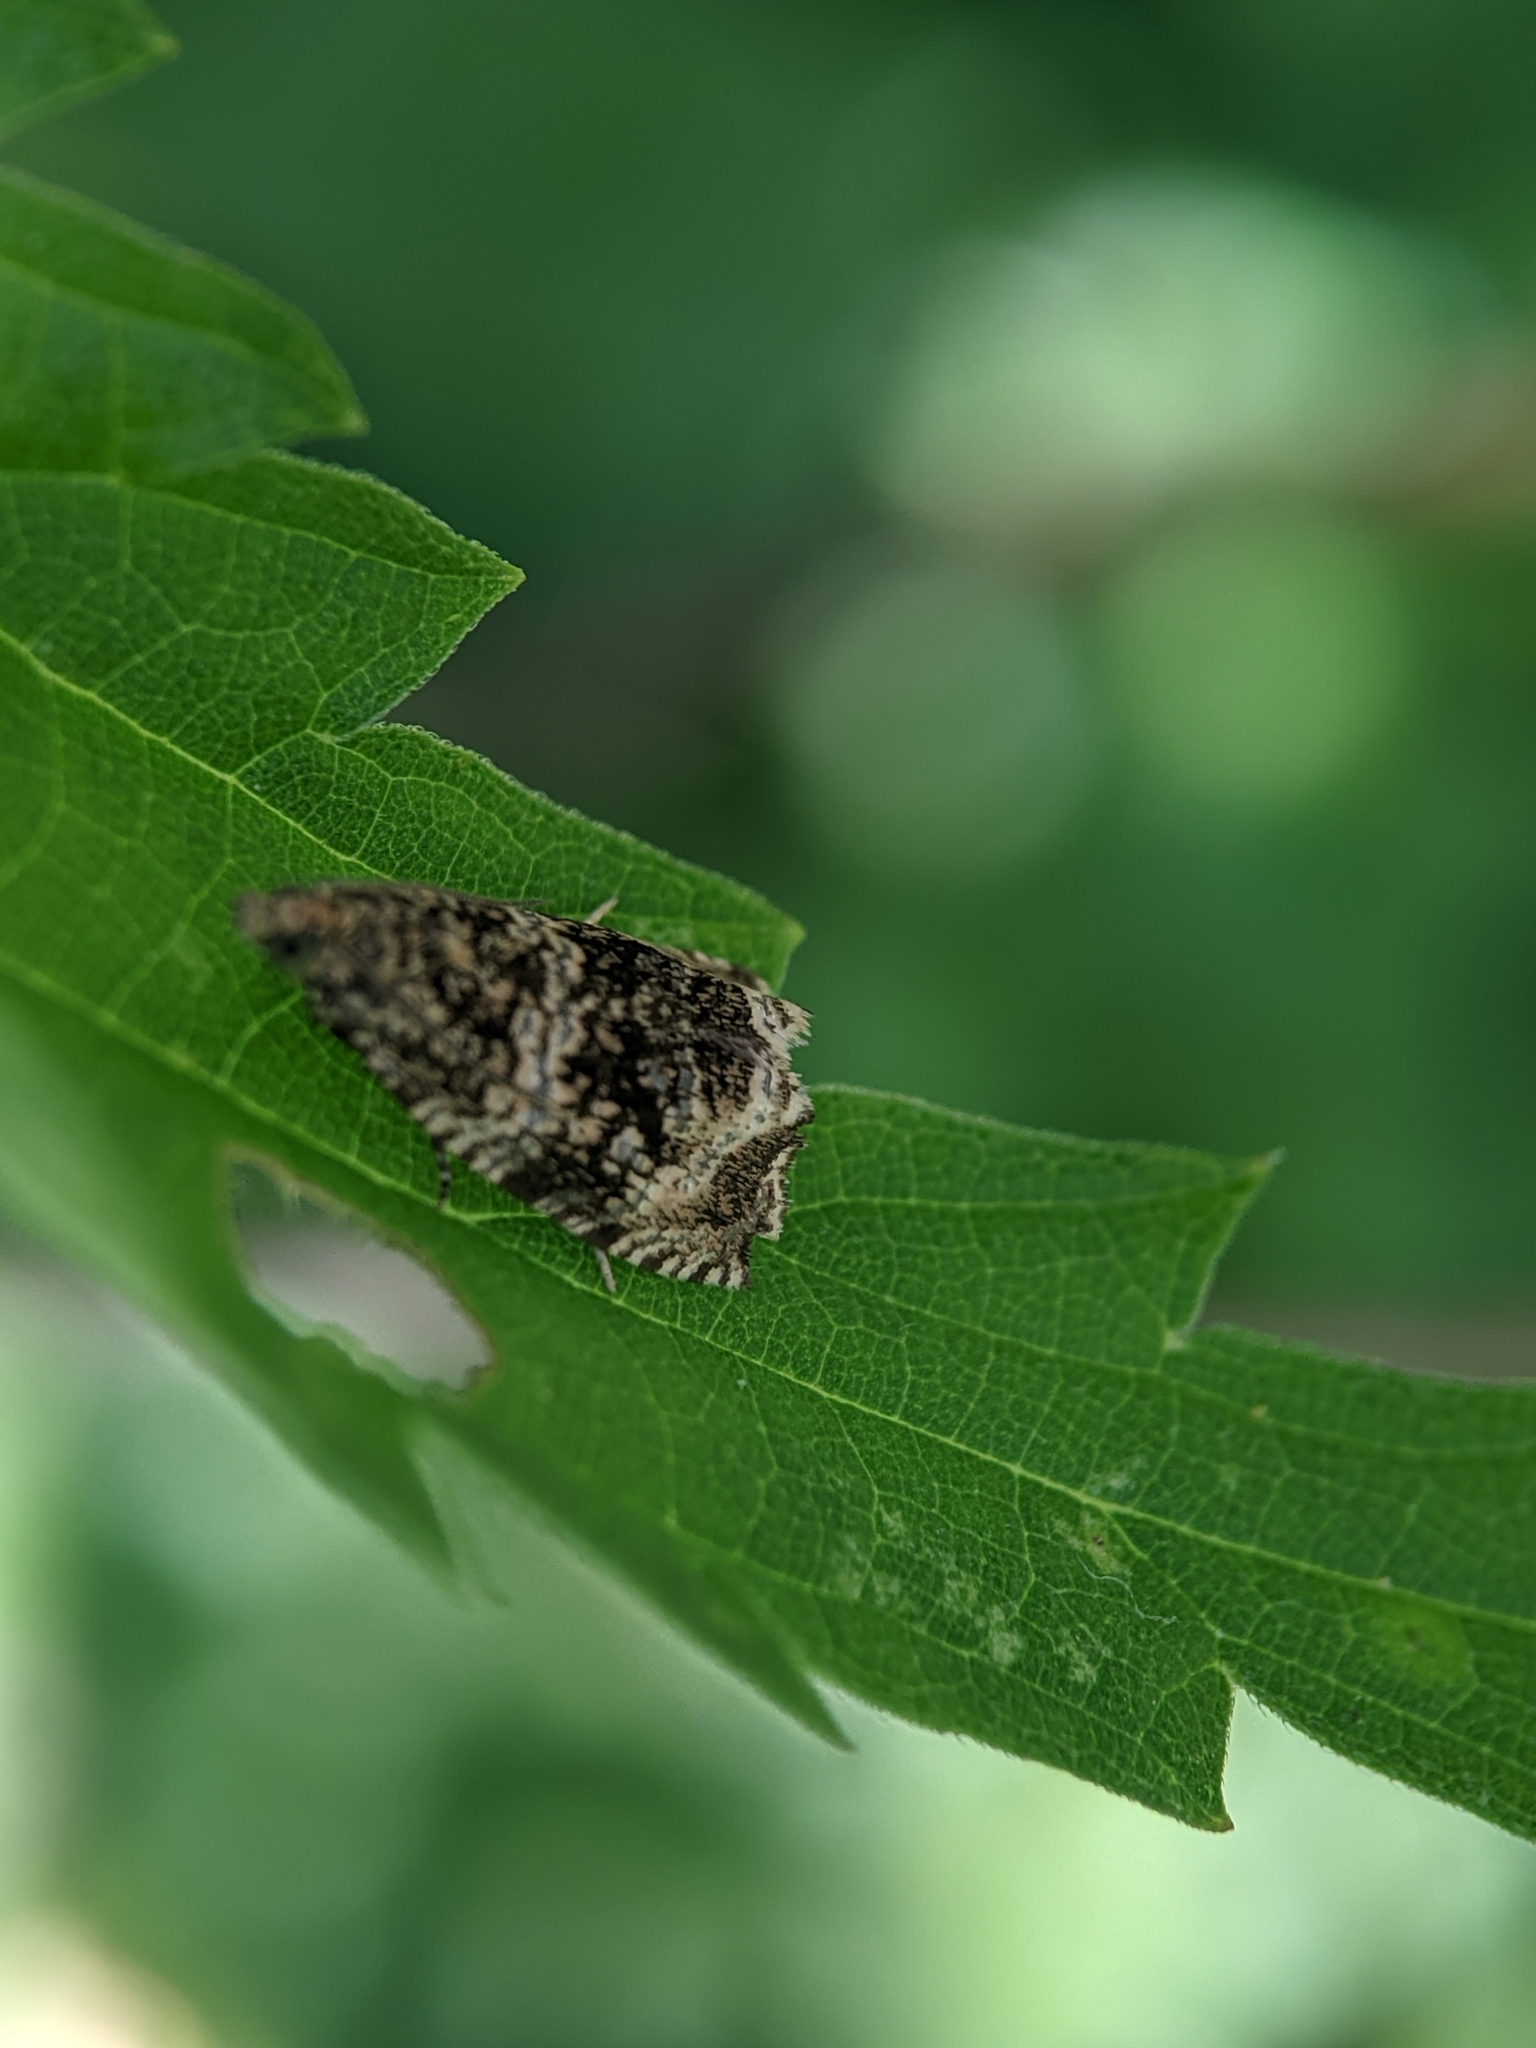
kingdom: Animalia
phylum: Arthropoda
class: Insecta
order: Lepidoptera
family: Tortricidae
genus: Syricoris
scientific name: Syricoris lacunana
